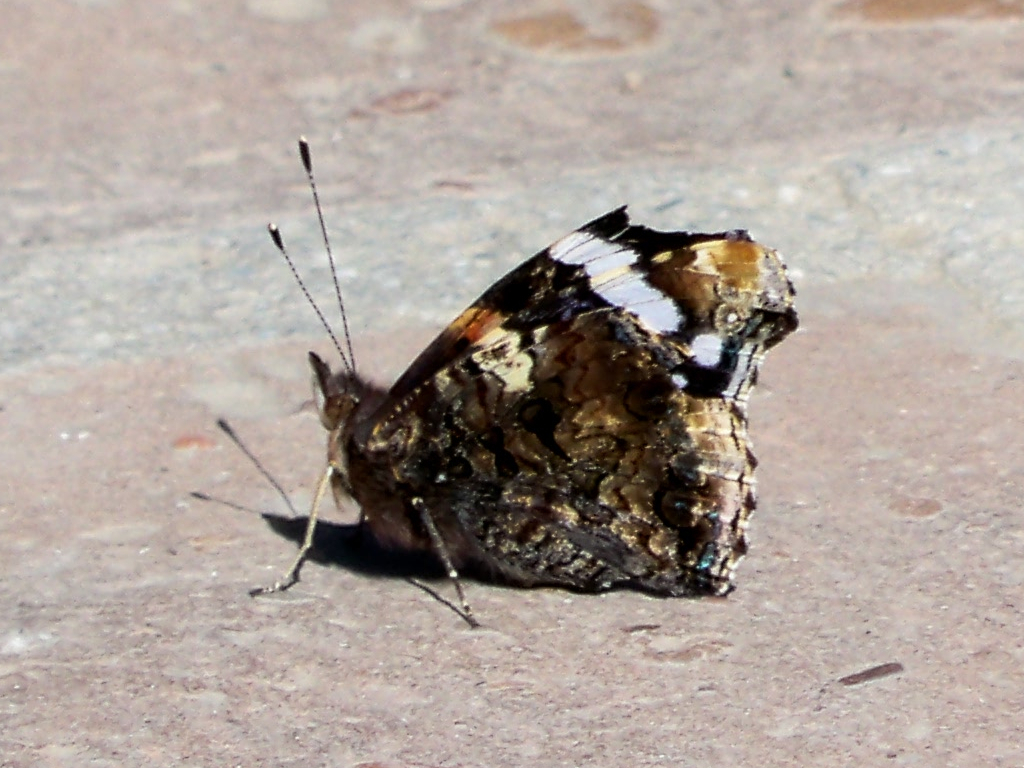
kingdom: Animalia
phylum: Arthropoda
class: Insecta
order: Lepidoptera
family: Nymphalidae
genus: Vanessa
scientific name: Vanessa atalanta
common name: Red admiral
